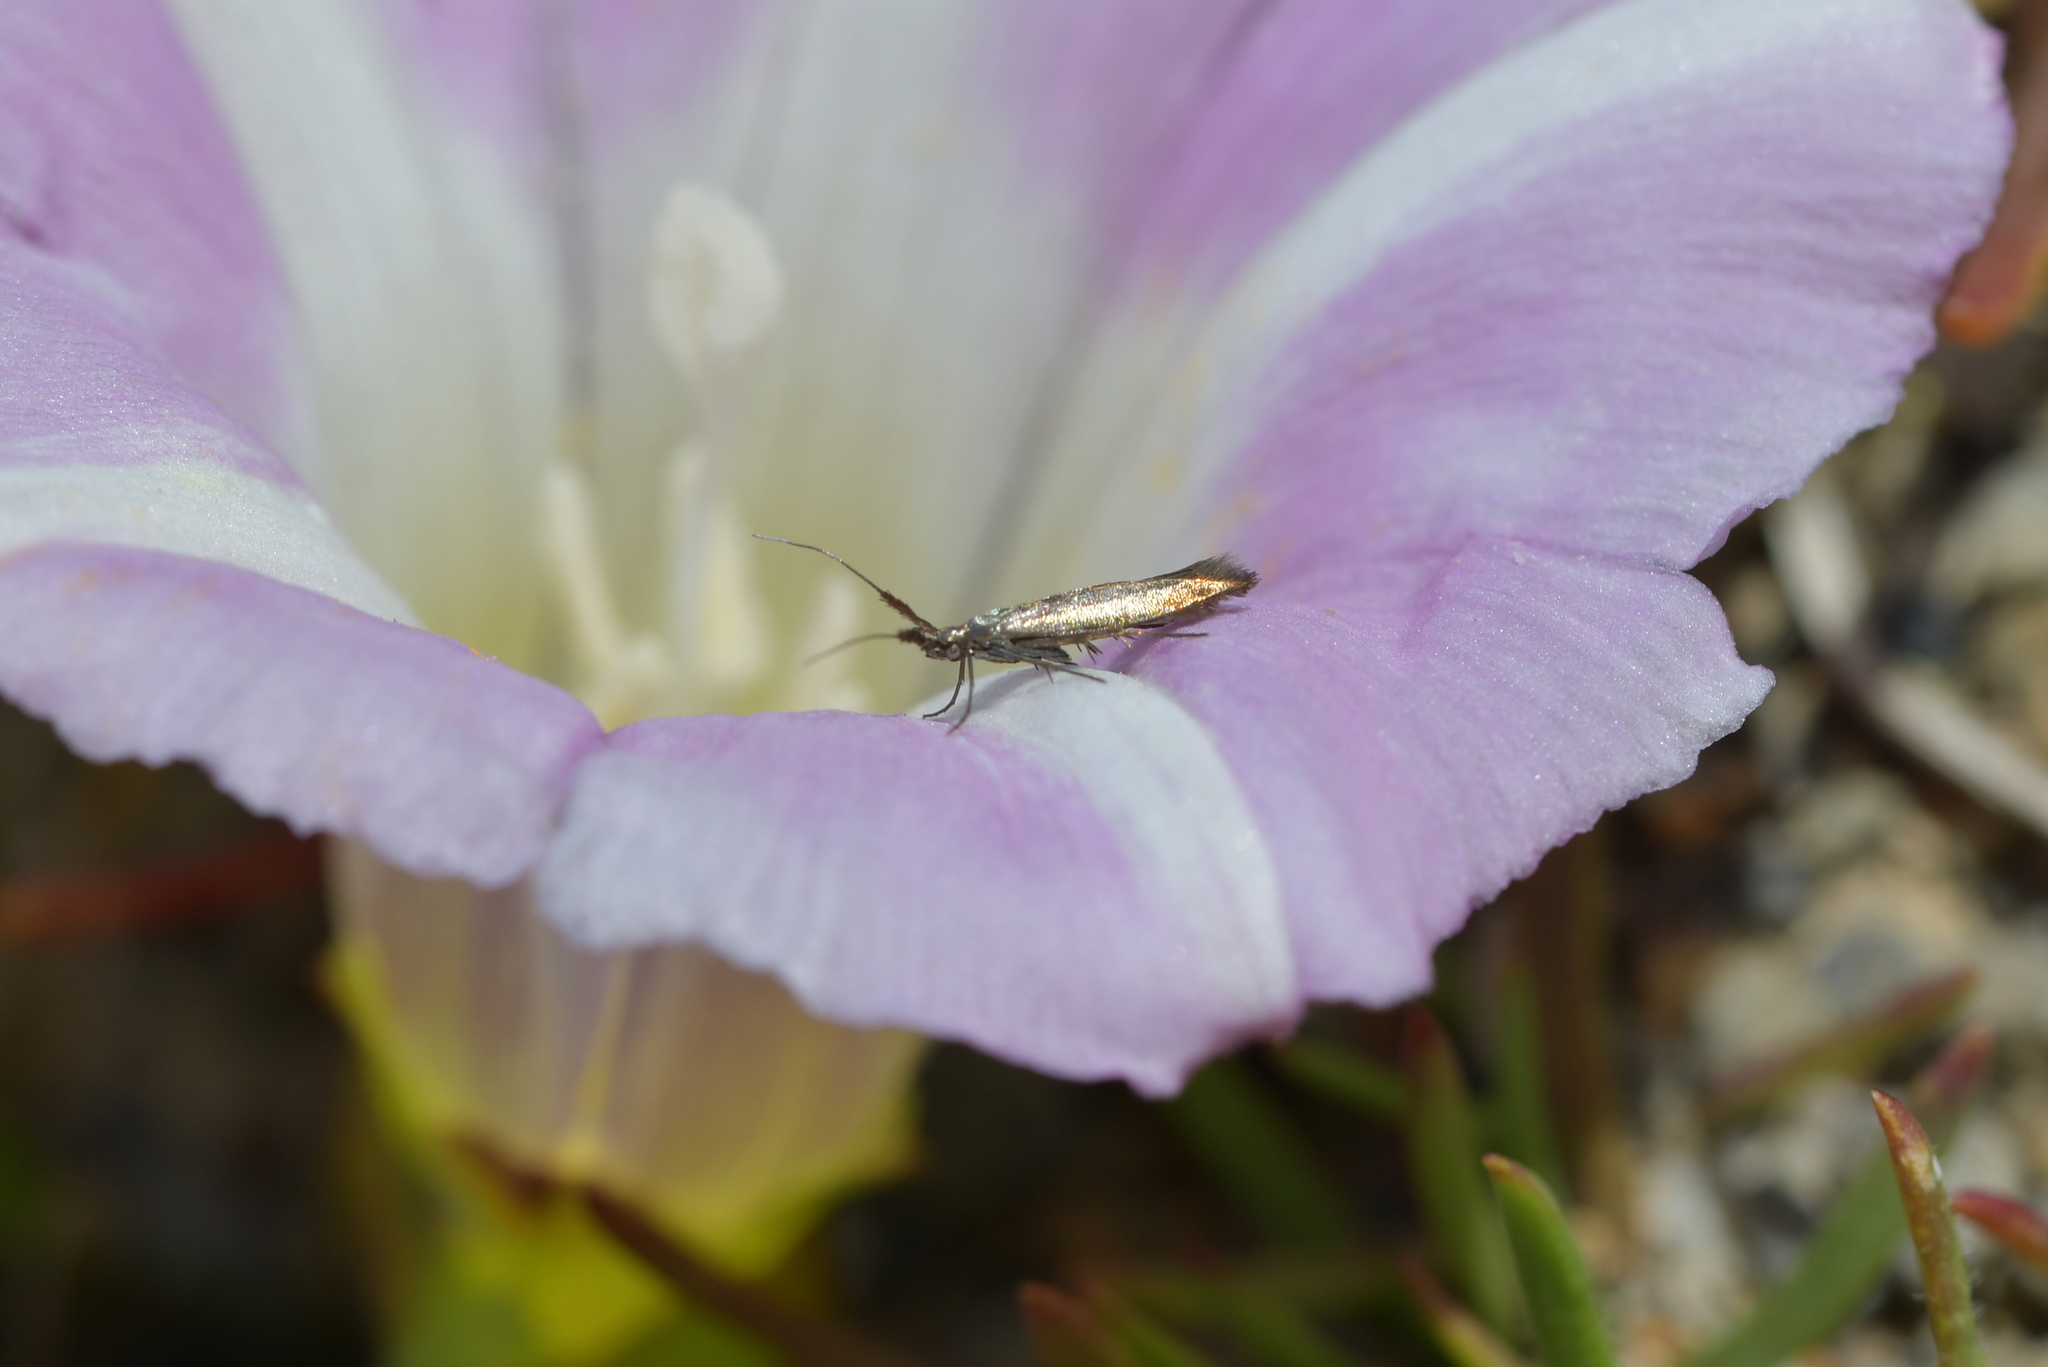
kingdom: Animalia
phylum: Arthropoda
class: Insecta
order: Lepidoptera
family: Coleophoridae
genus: Coleophora
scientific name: Coleophora deauratella
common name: Red-clover case-bearer
